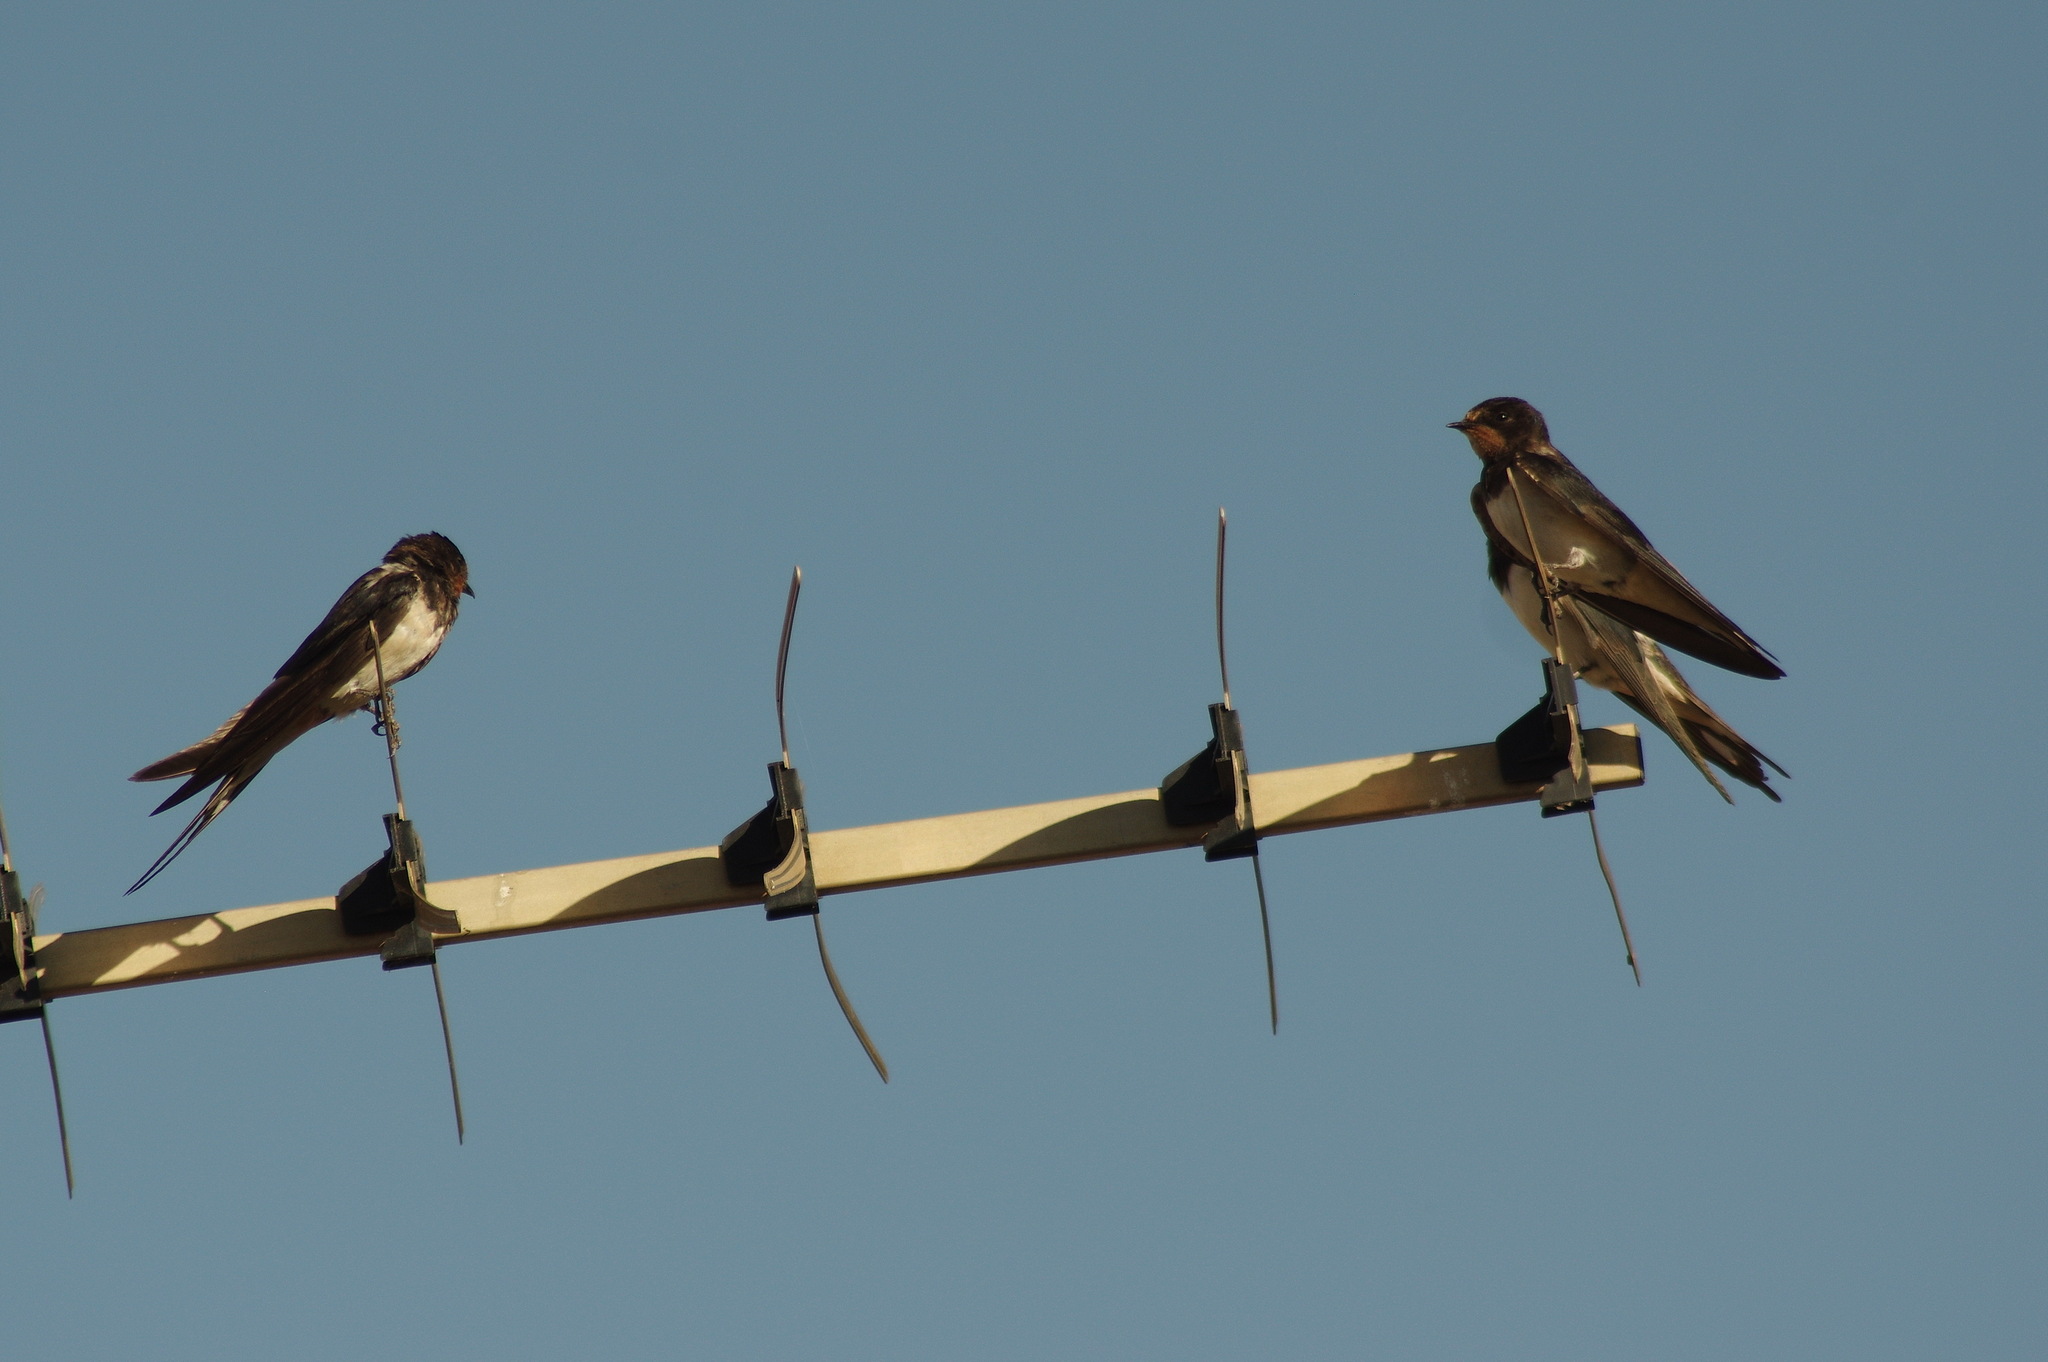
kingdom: Animalia
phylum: Chordata
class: Aves
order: Passeriformes
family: Hirundinidae
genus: Hirundo
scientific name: Hirundo rustica
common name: Barn swallow
